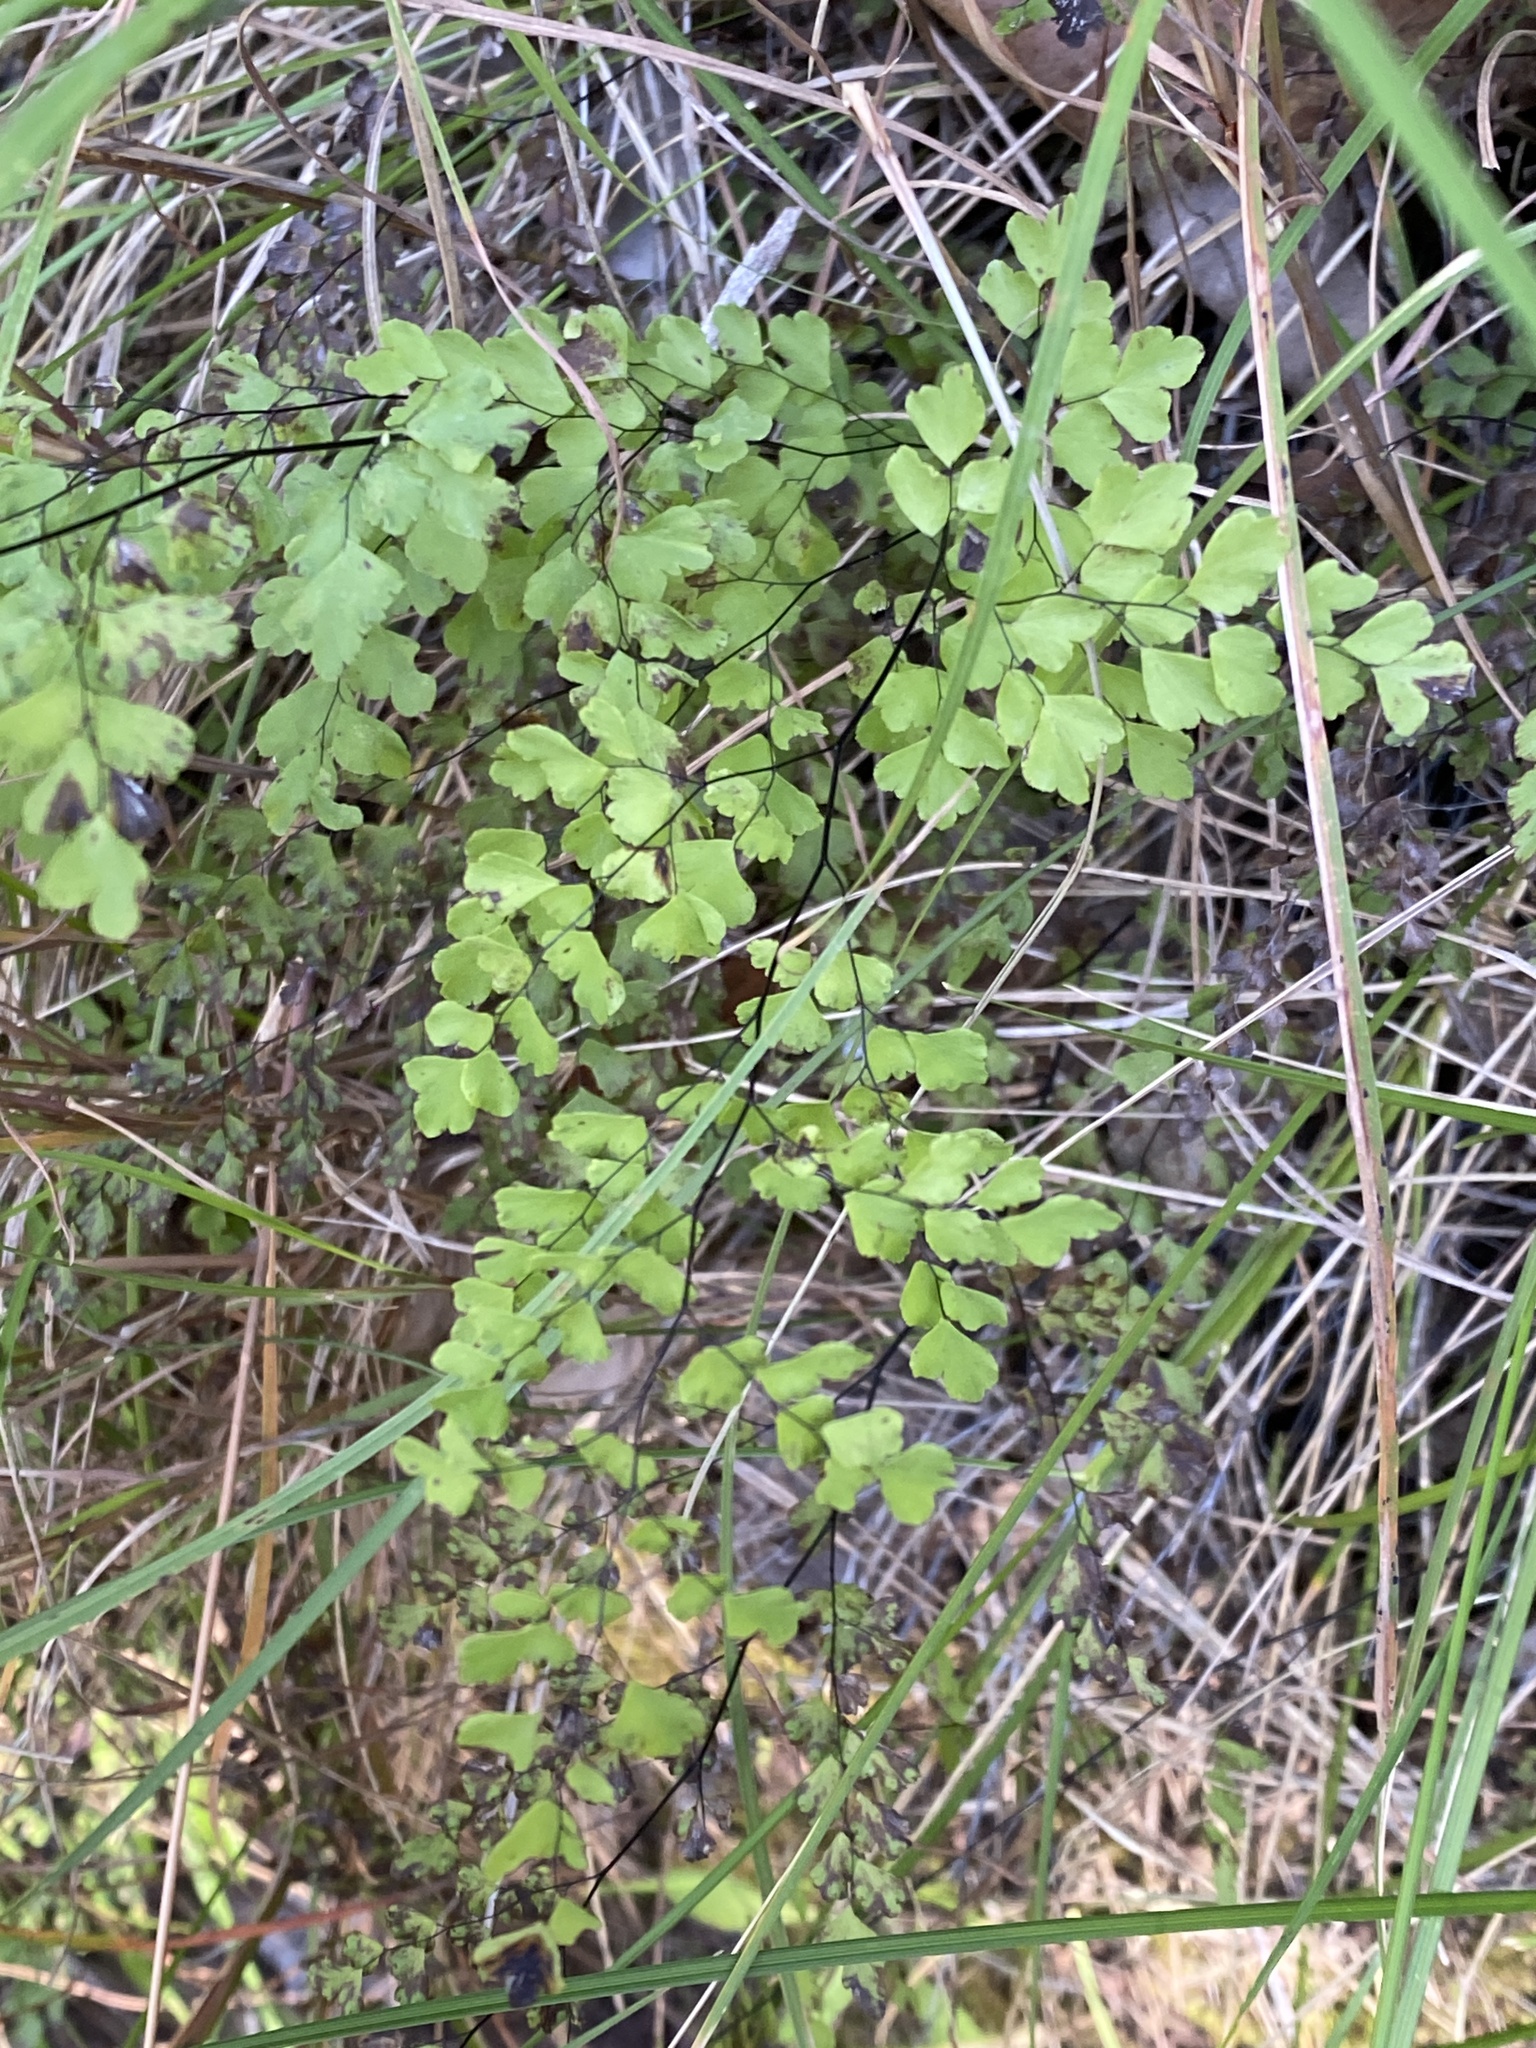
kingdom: Plantae
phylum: Tracheophyta
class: Polypodiopsida
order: Polypodiales
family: Pteridaceae
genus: Adiantum
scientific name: Adiantum atroviride
